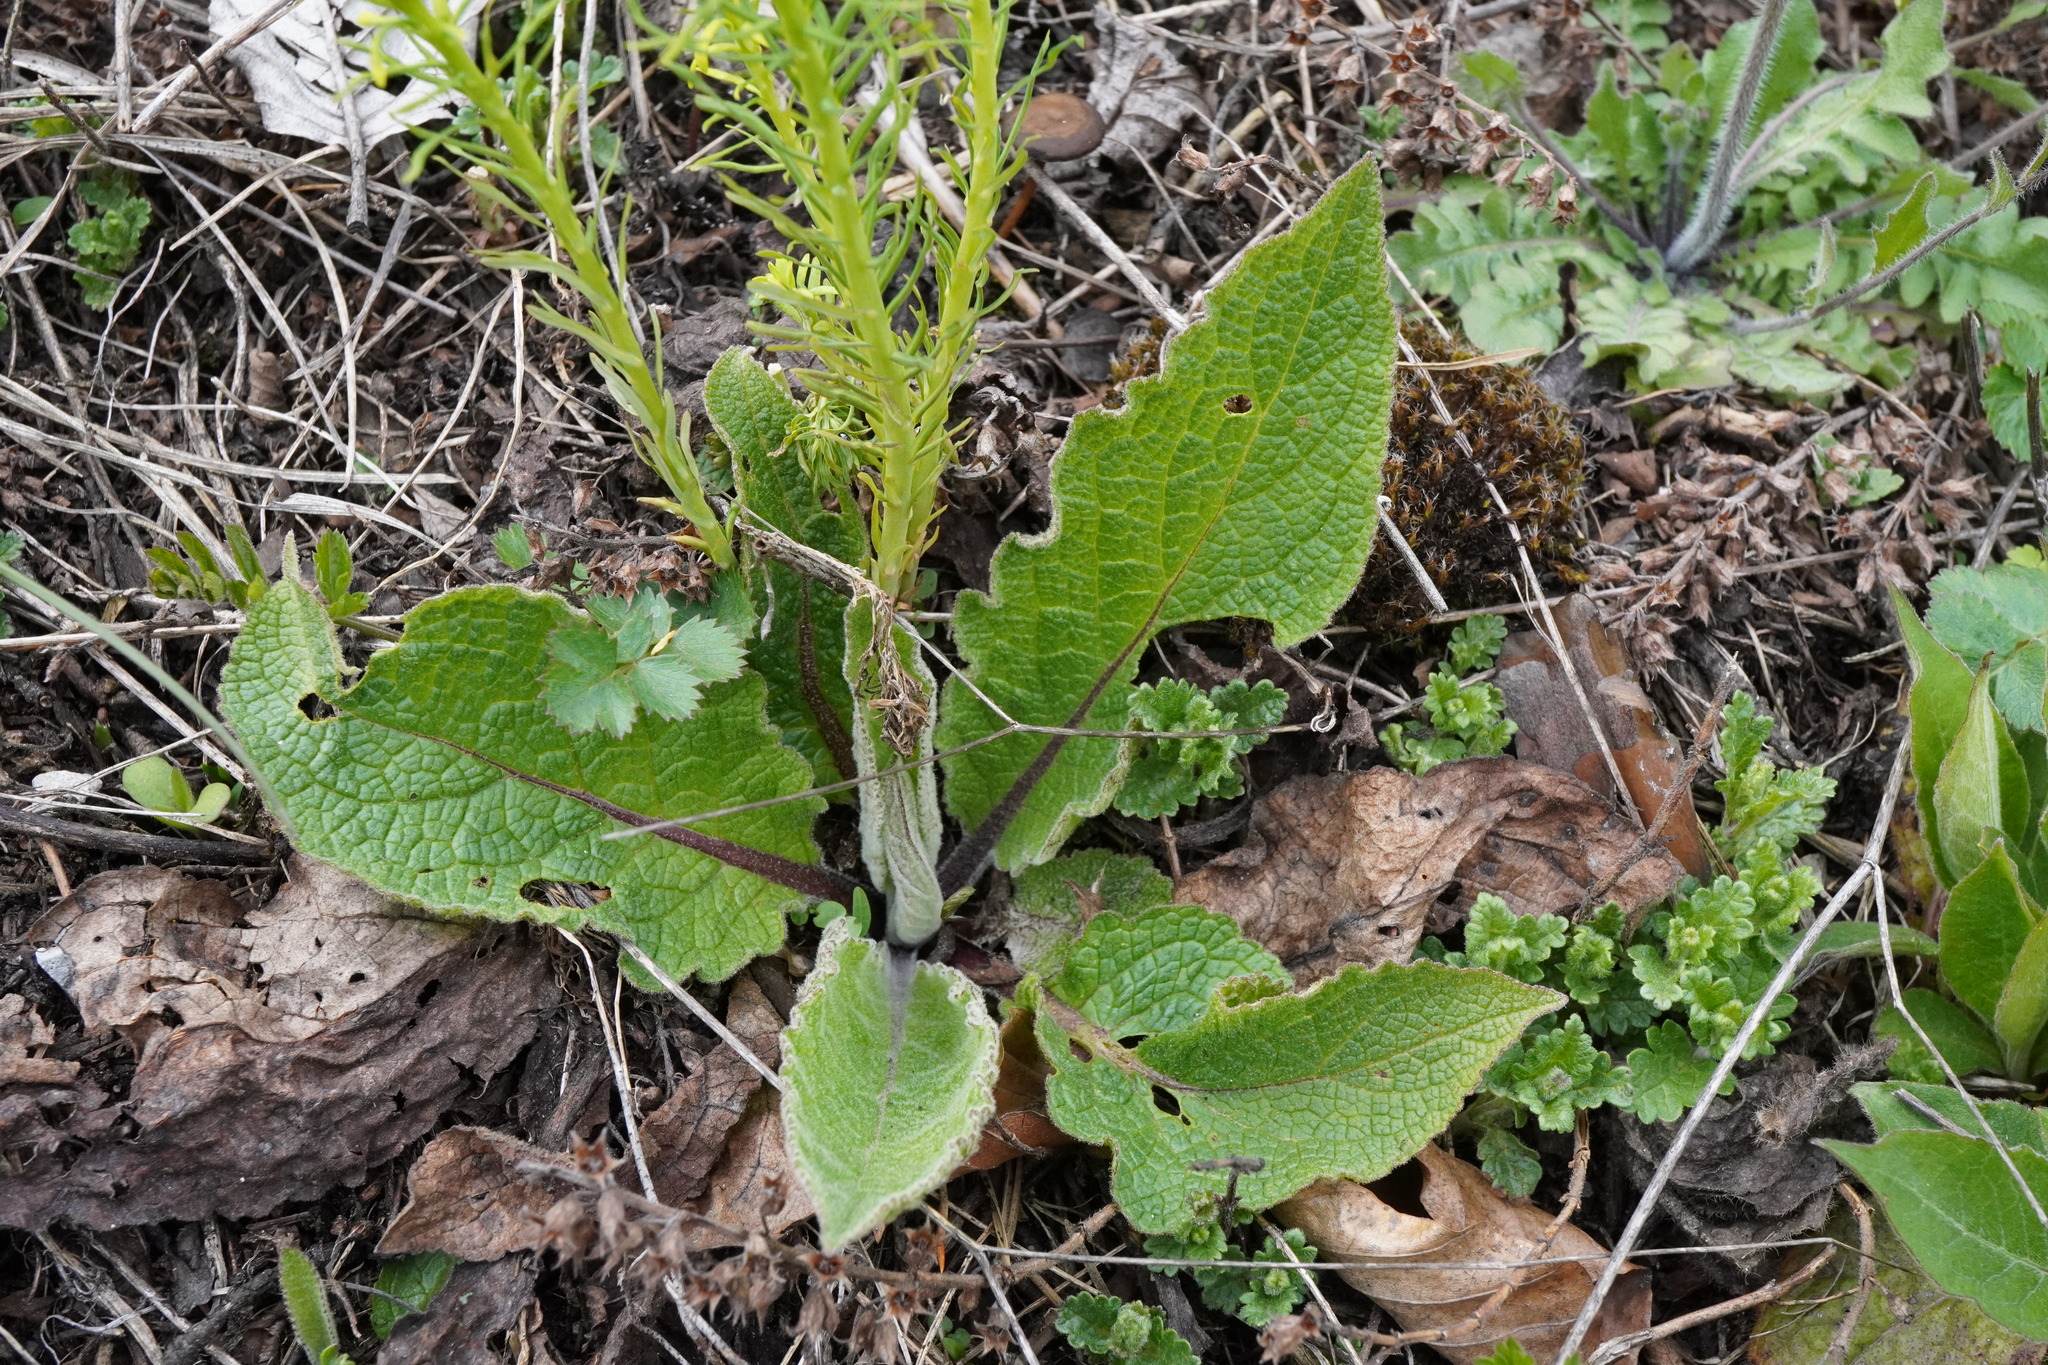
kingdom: Plantae
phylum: Tracheophyta
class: Magnoliopsida
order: Lamiales
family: Scrophulariaceae
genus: Verbascum
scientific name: Verbascum chaixii
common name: Nettle-leaved mullein
